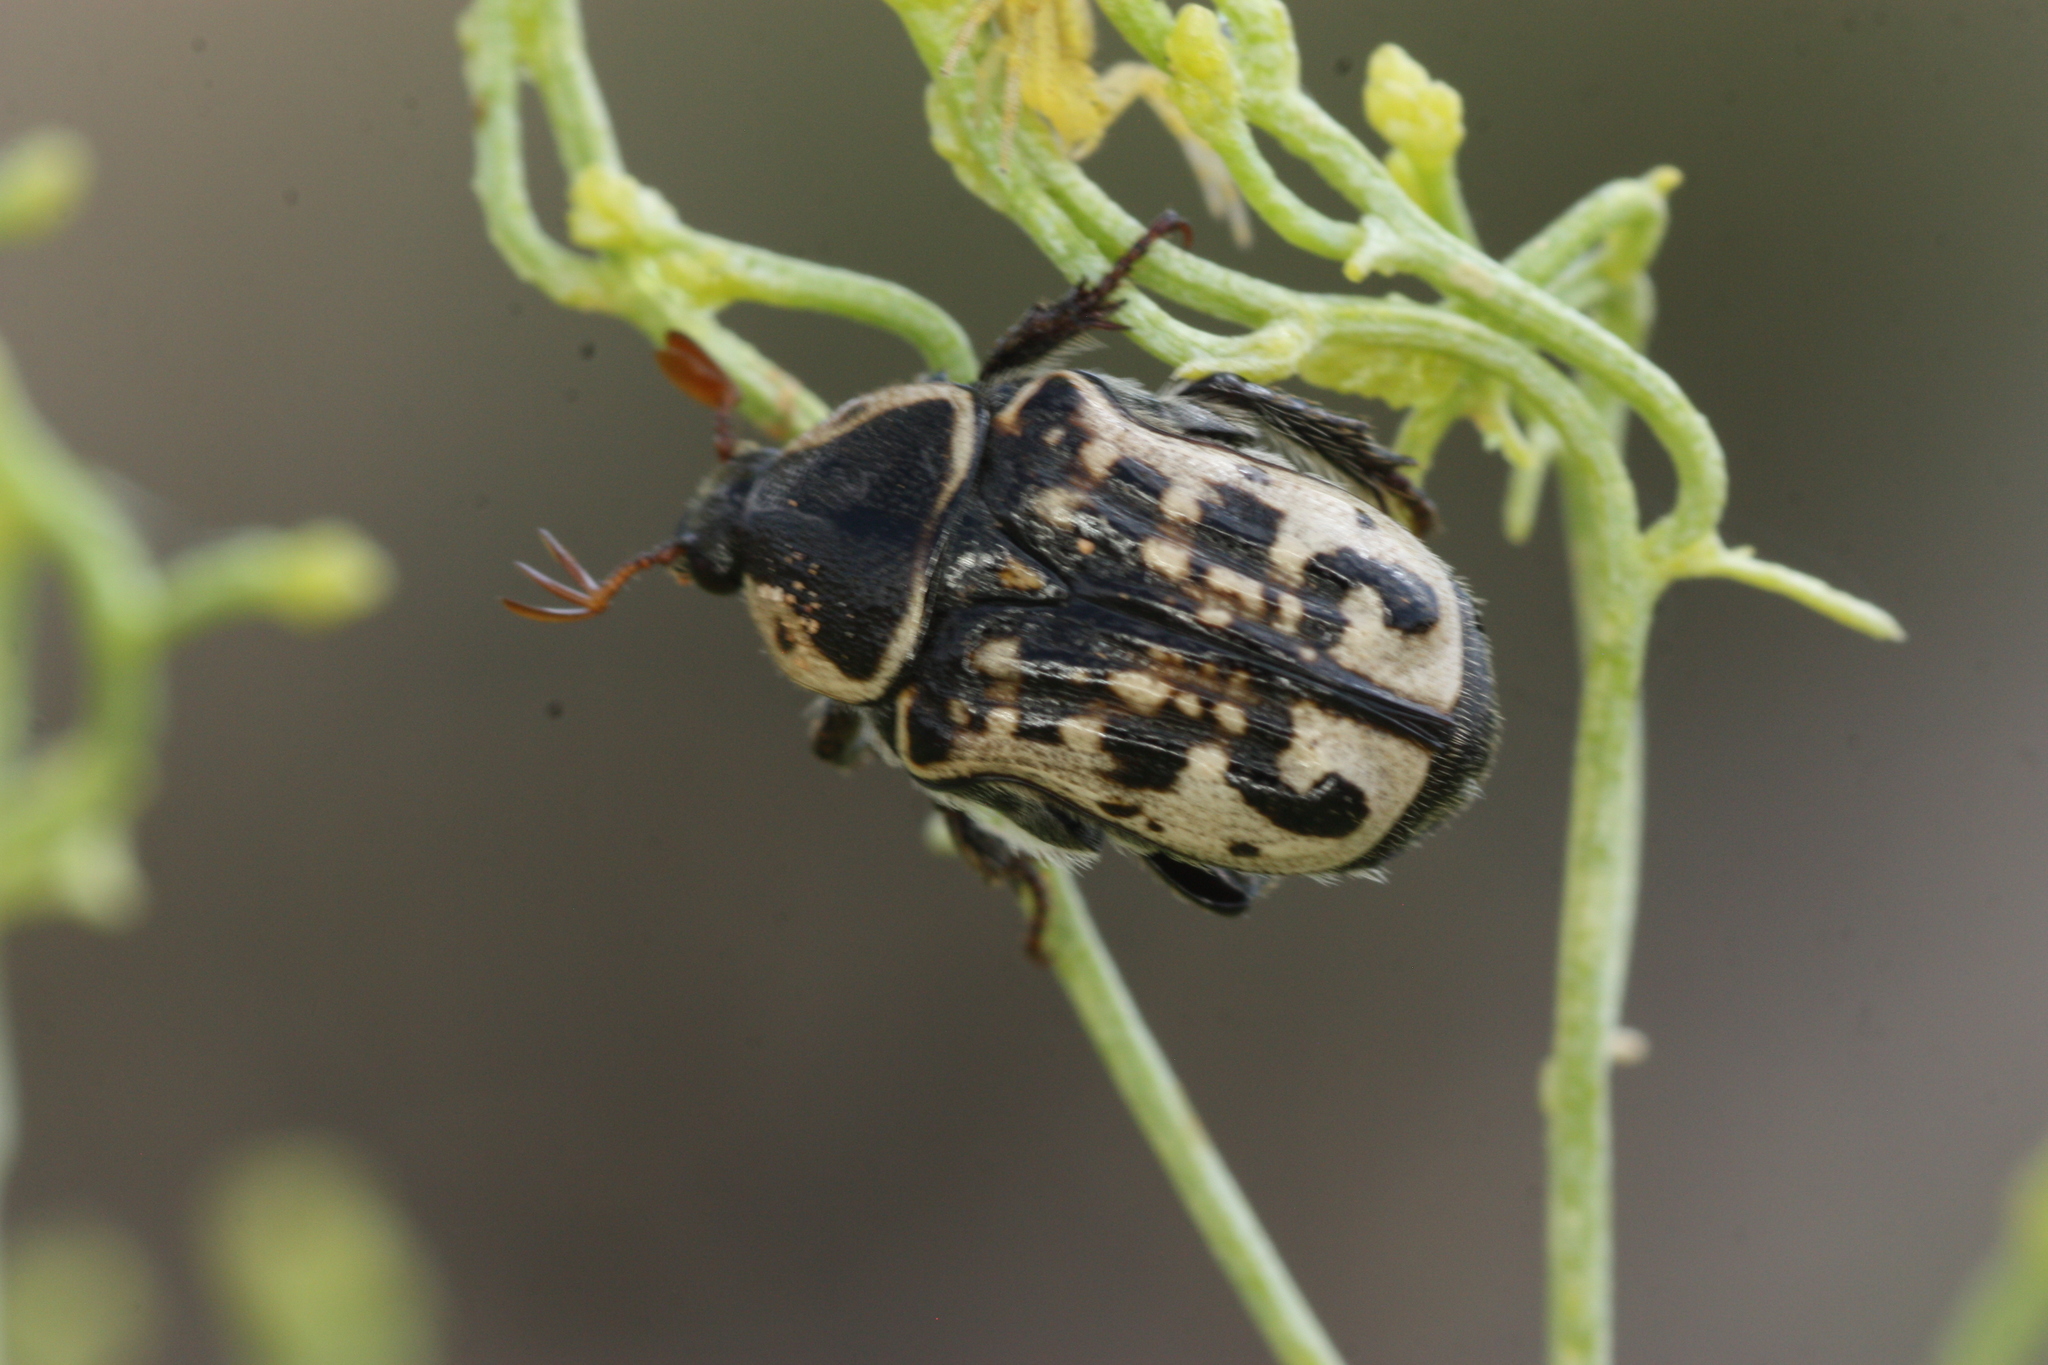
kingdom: Animalia
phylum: Arthropoda
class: Insecta
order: Coleoptera
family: Scarabaeidae
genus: Euphoria
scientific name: Euphoria kernii
